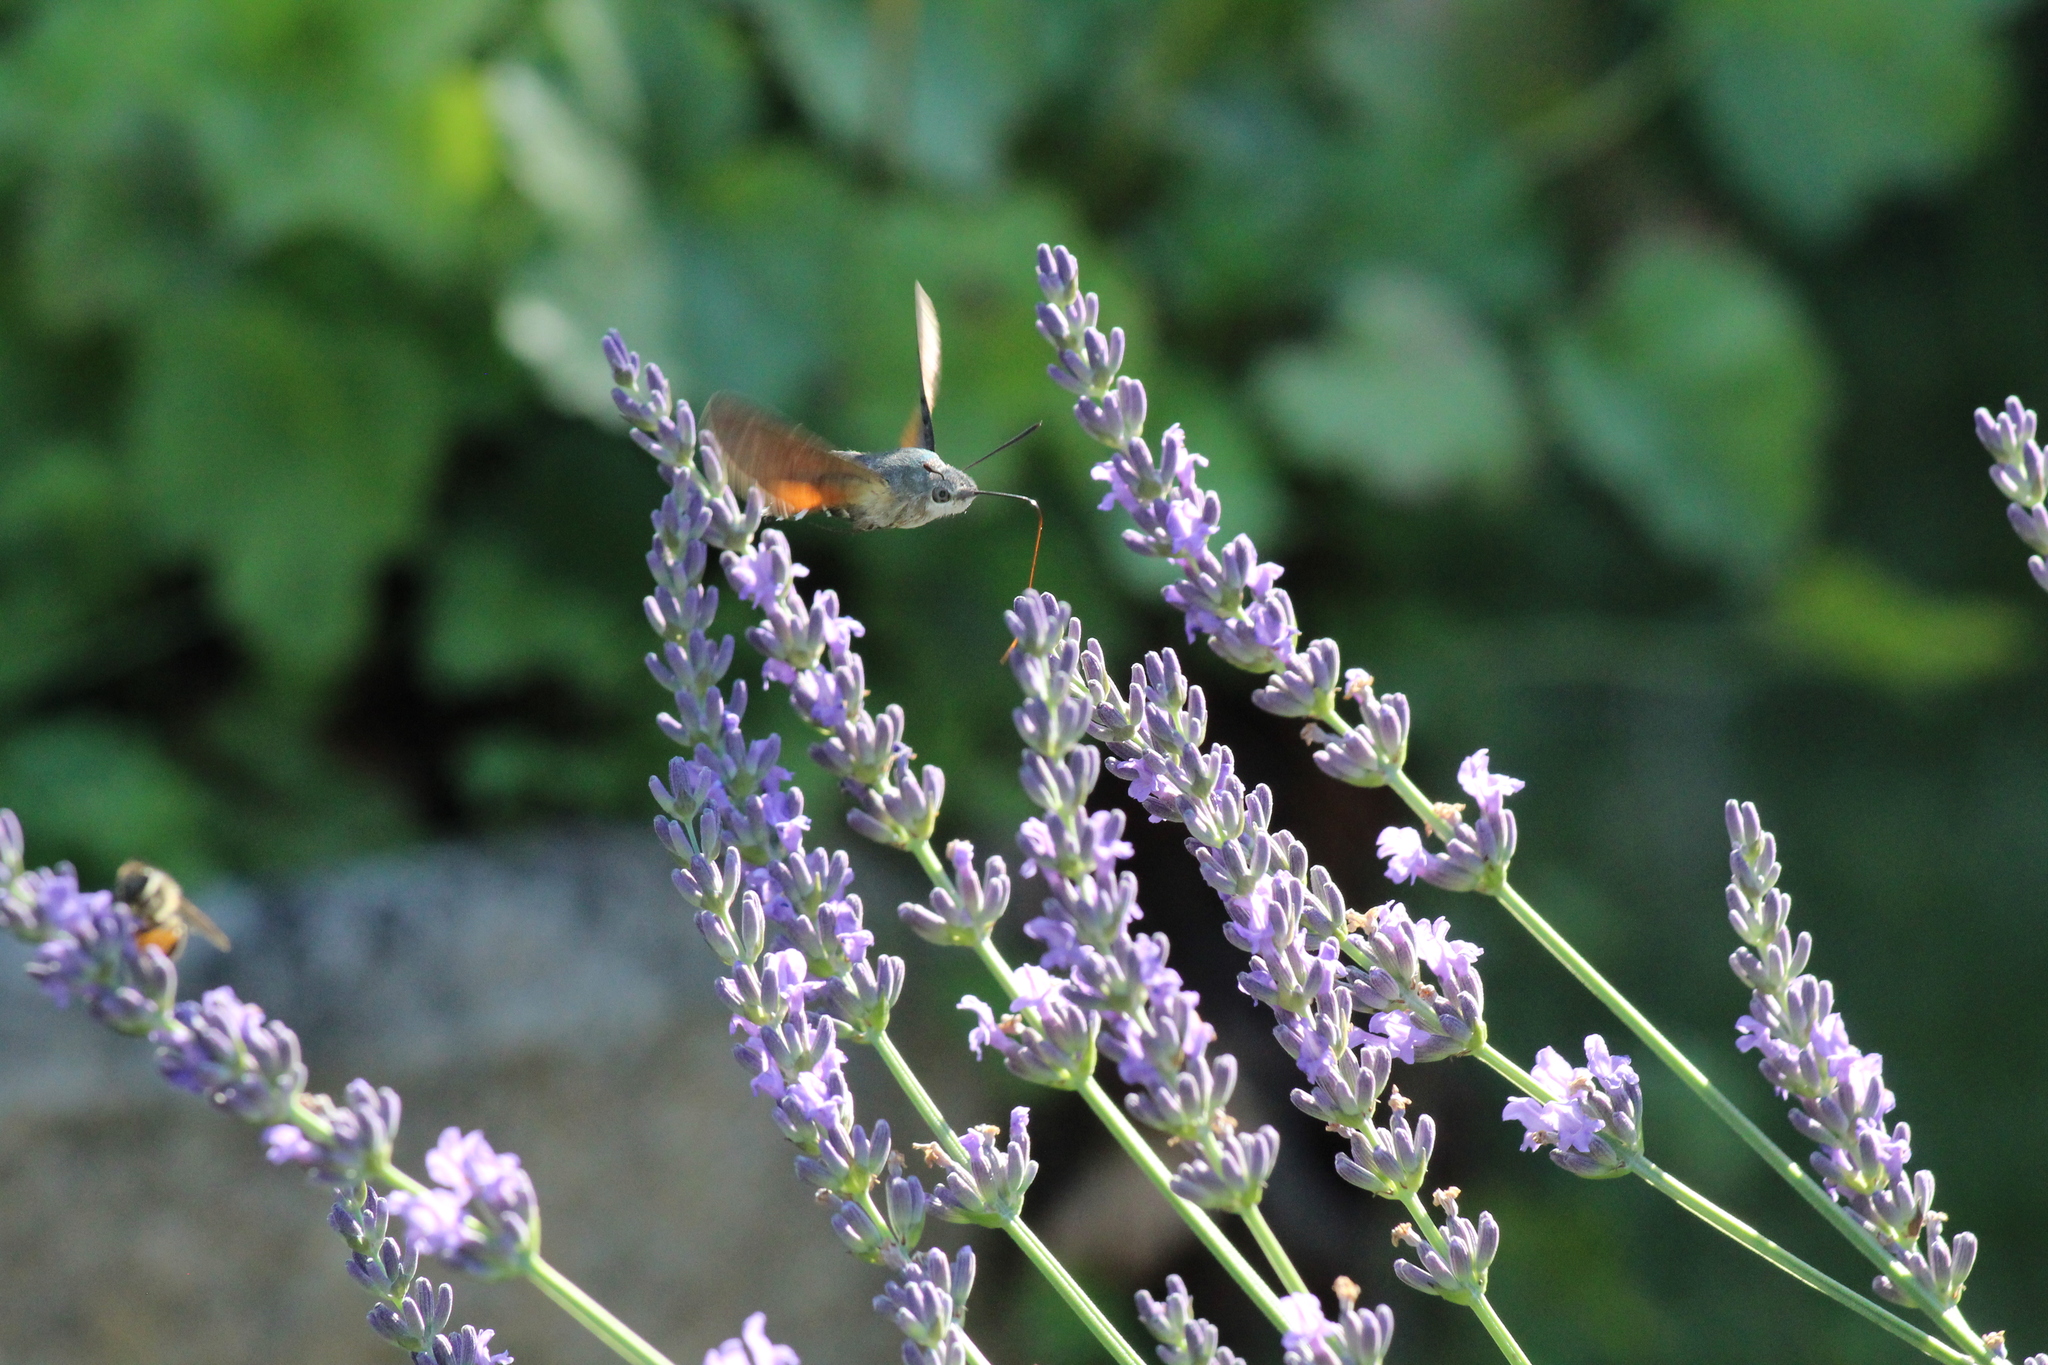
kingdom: Animalia
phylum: Arthropoda
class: Insecta
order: Lepidoptera
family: Sphingidae
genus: Macroglossum
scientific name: Macroglossum stellatarum
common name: Humming-bird hawk-moth
